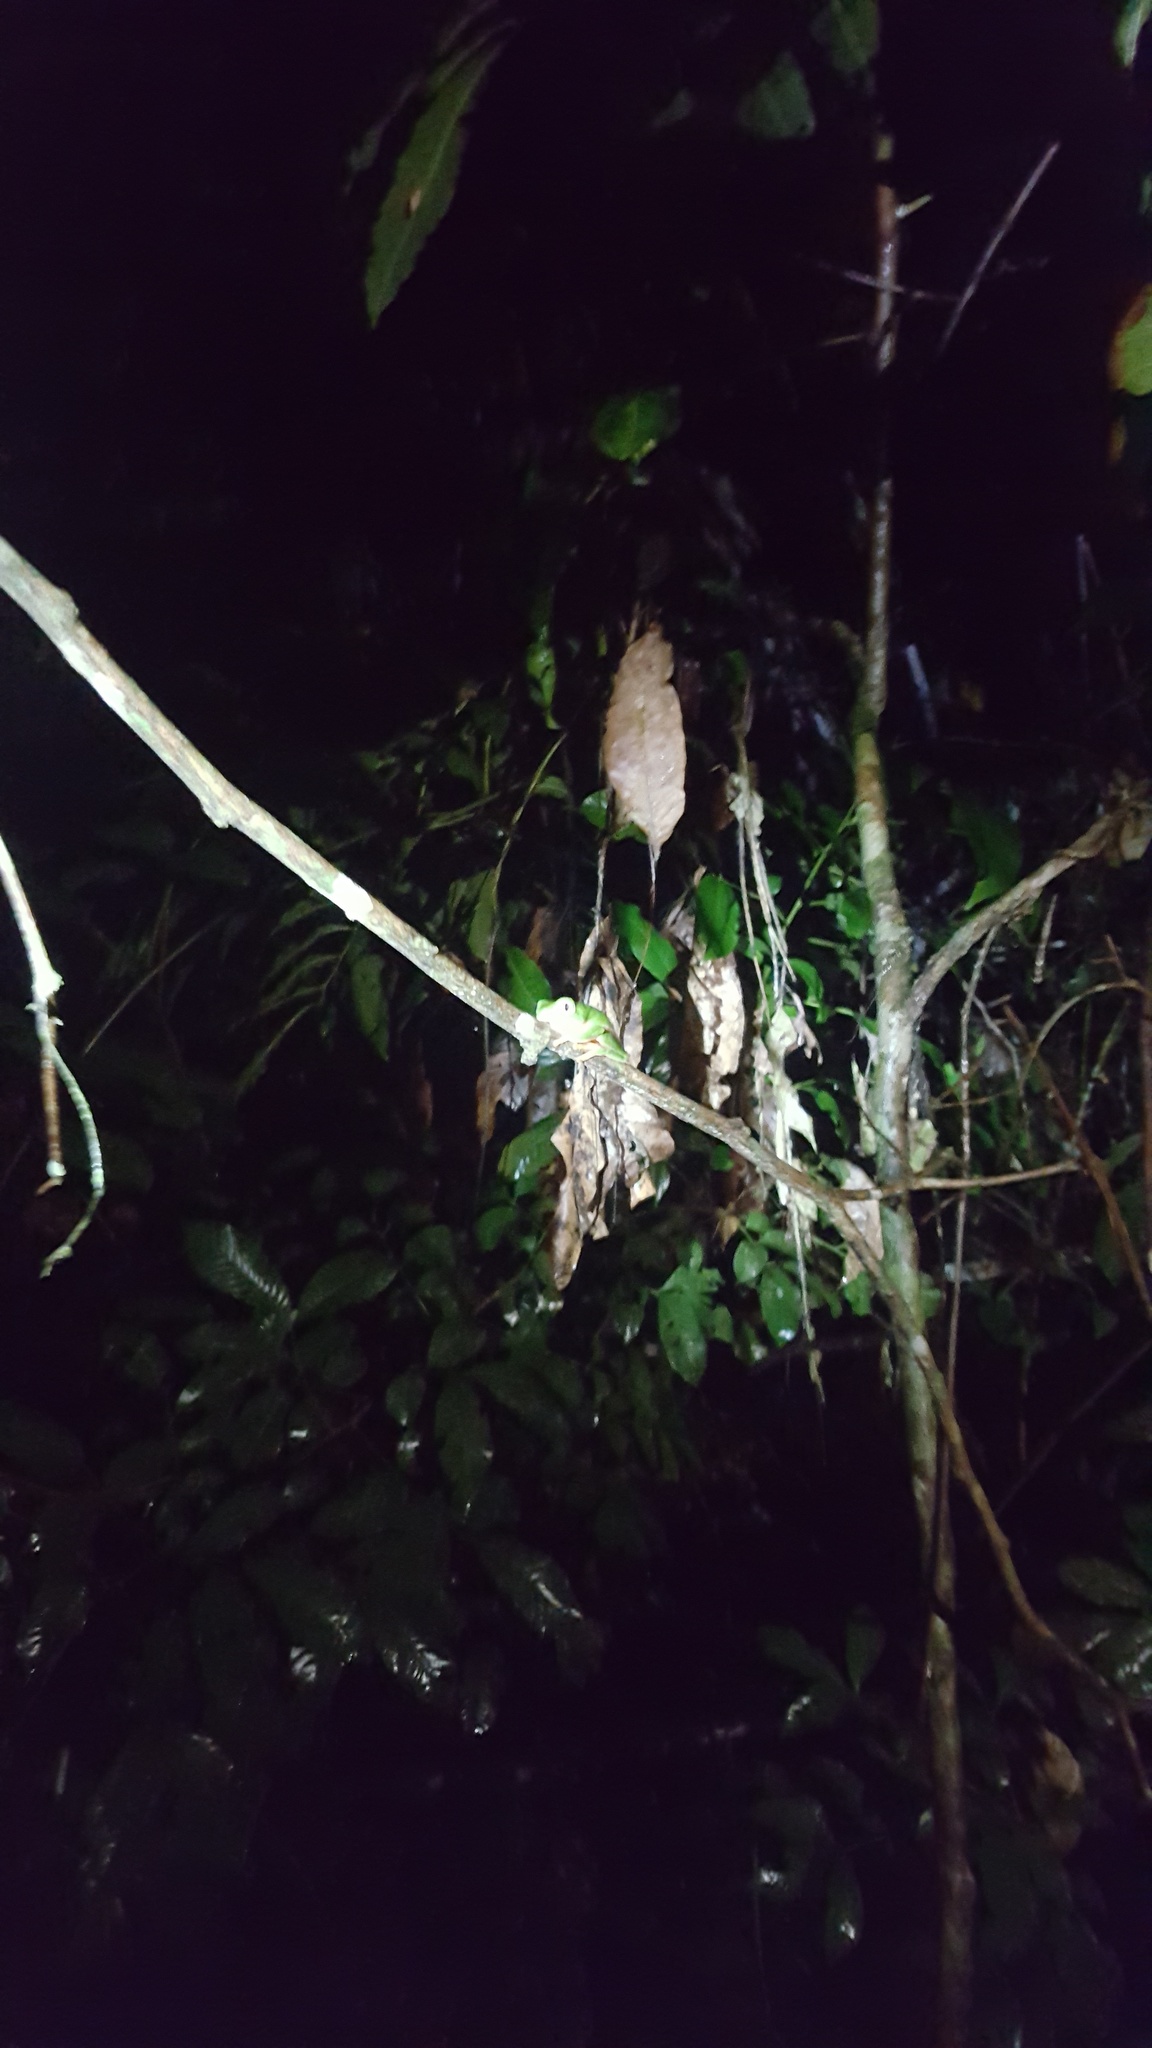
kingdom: Animalia
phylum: Chordata
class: Amphibia
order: Anura
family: Phyllomedusidae
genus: Callimedusa
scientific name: Callimedusa tomopterna
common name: Tiger-striped leaf frog
